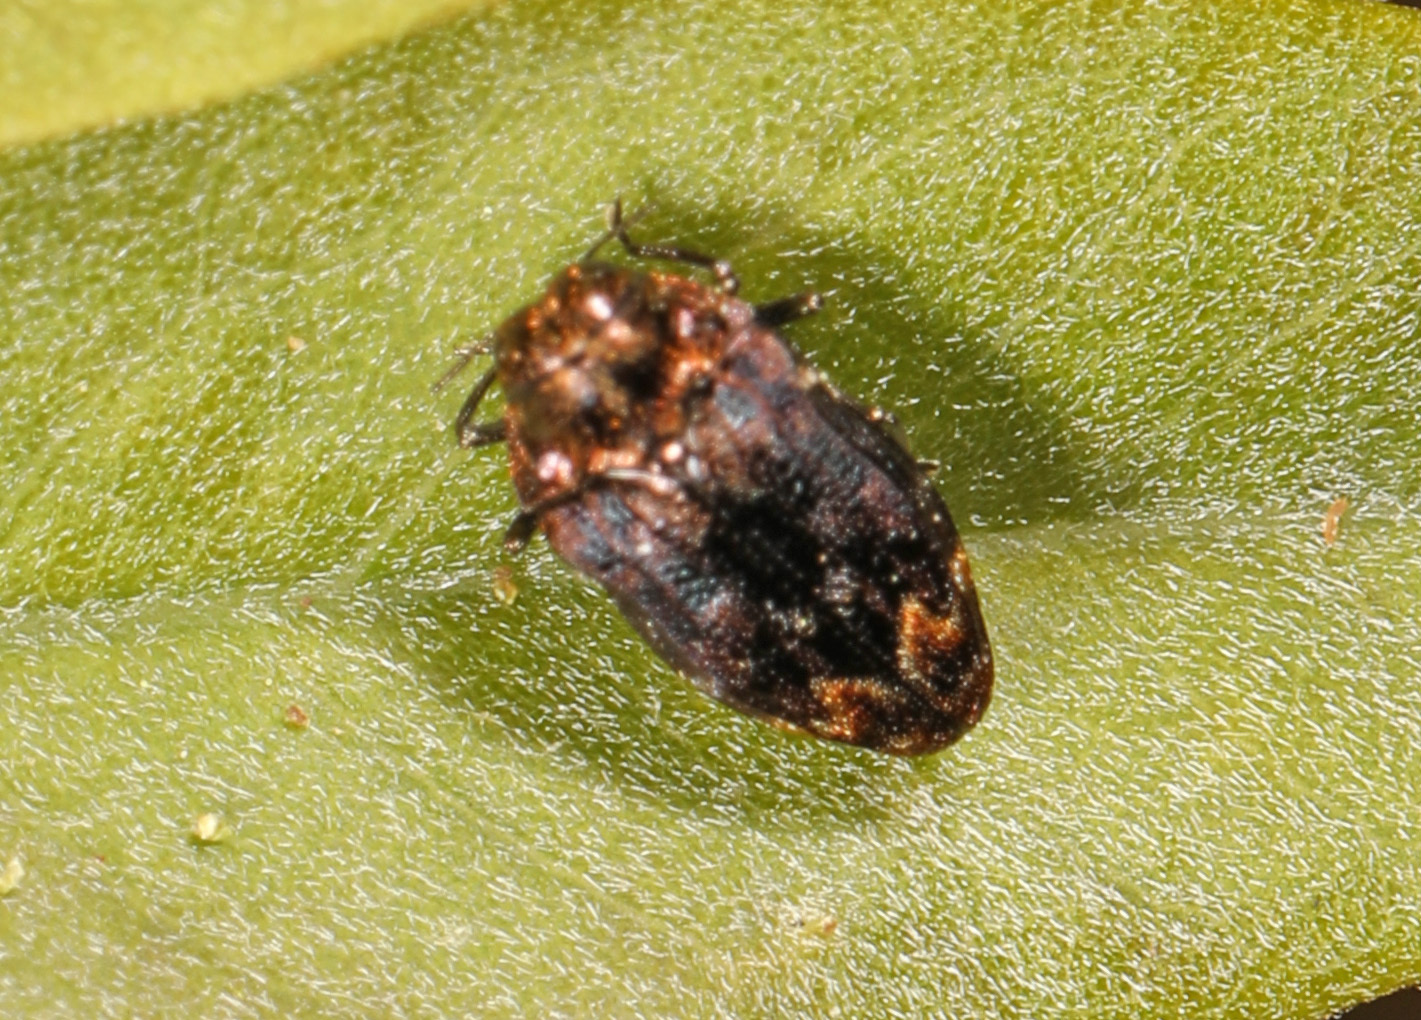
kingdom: Animalia
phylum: Arthropoda
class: Insecta
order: Coleoptera
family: Buprestidae
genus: Brachys
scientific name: Brachys aerosus
